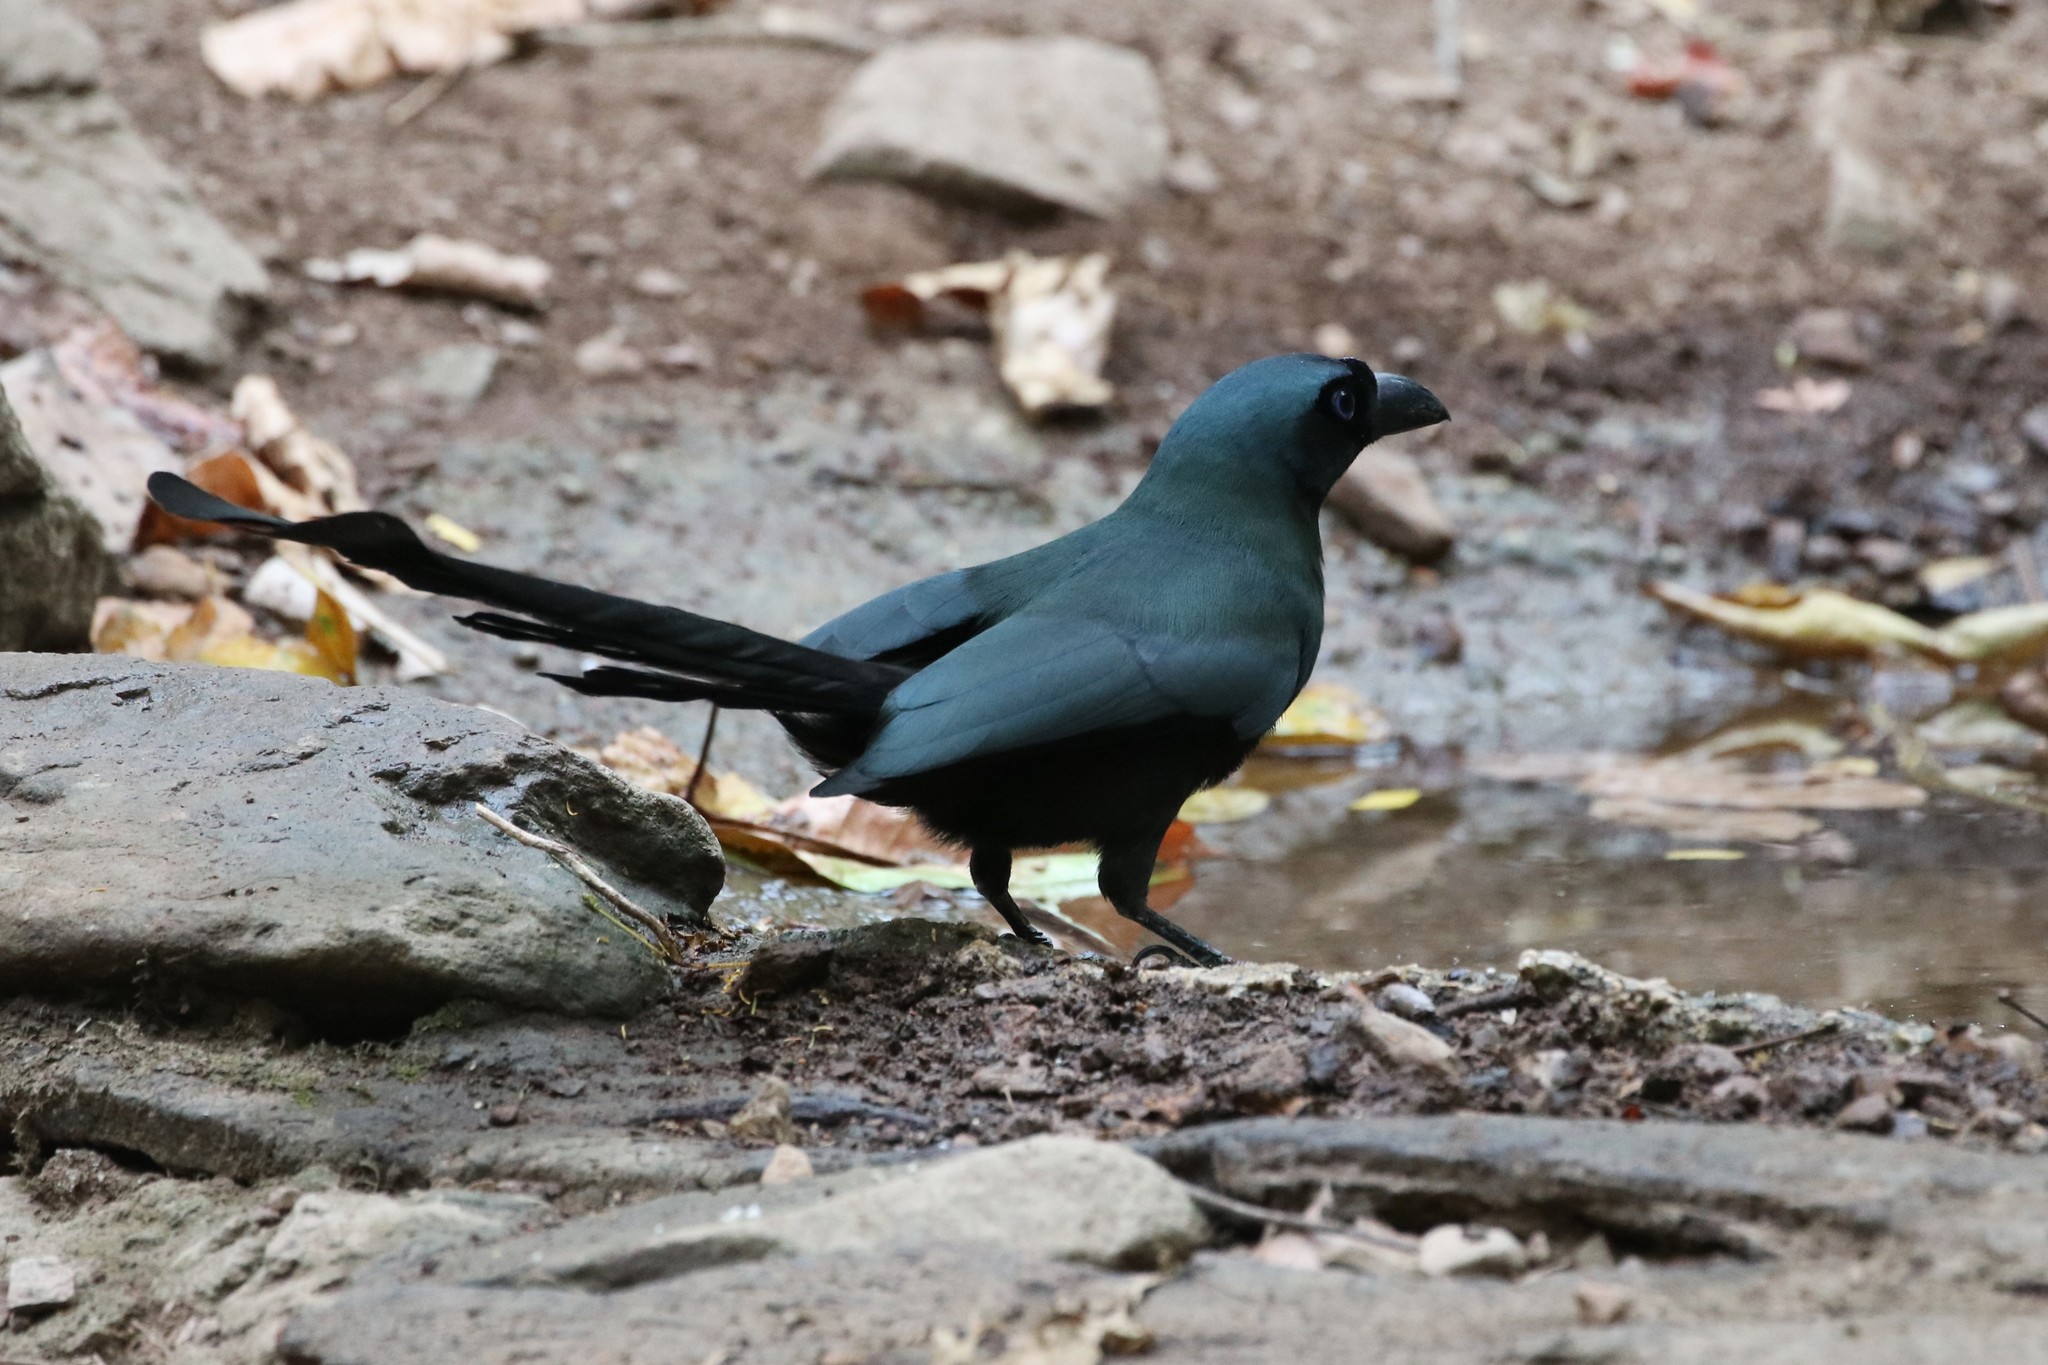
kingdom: Animalia
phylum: Chordata
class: Aves
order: Passeriformes
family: Corvidae
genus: Crypsirina
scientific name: Crypsirina temia
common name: Racket-tailed treepie
